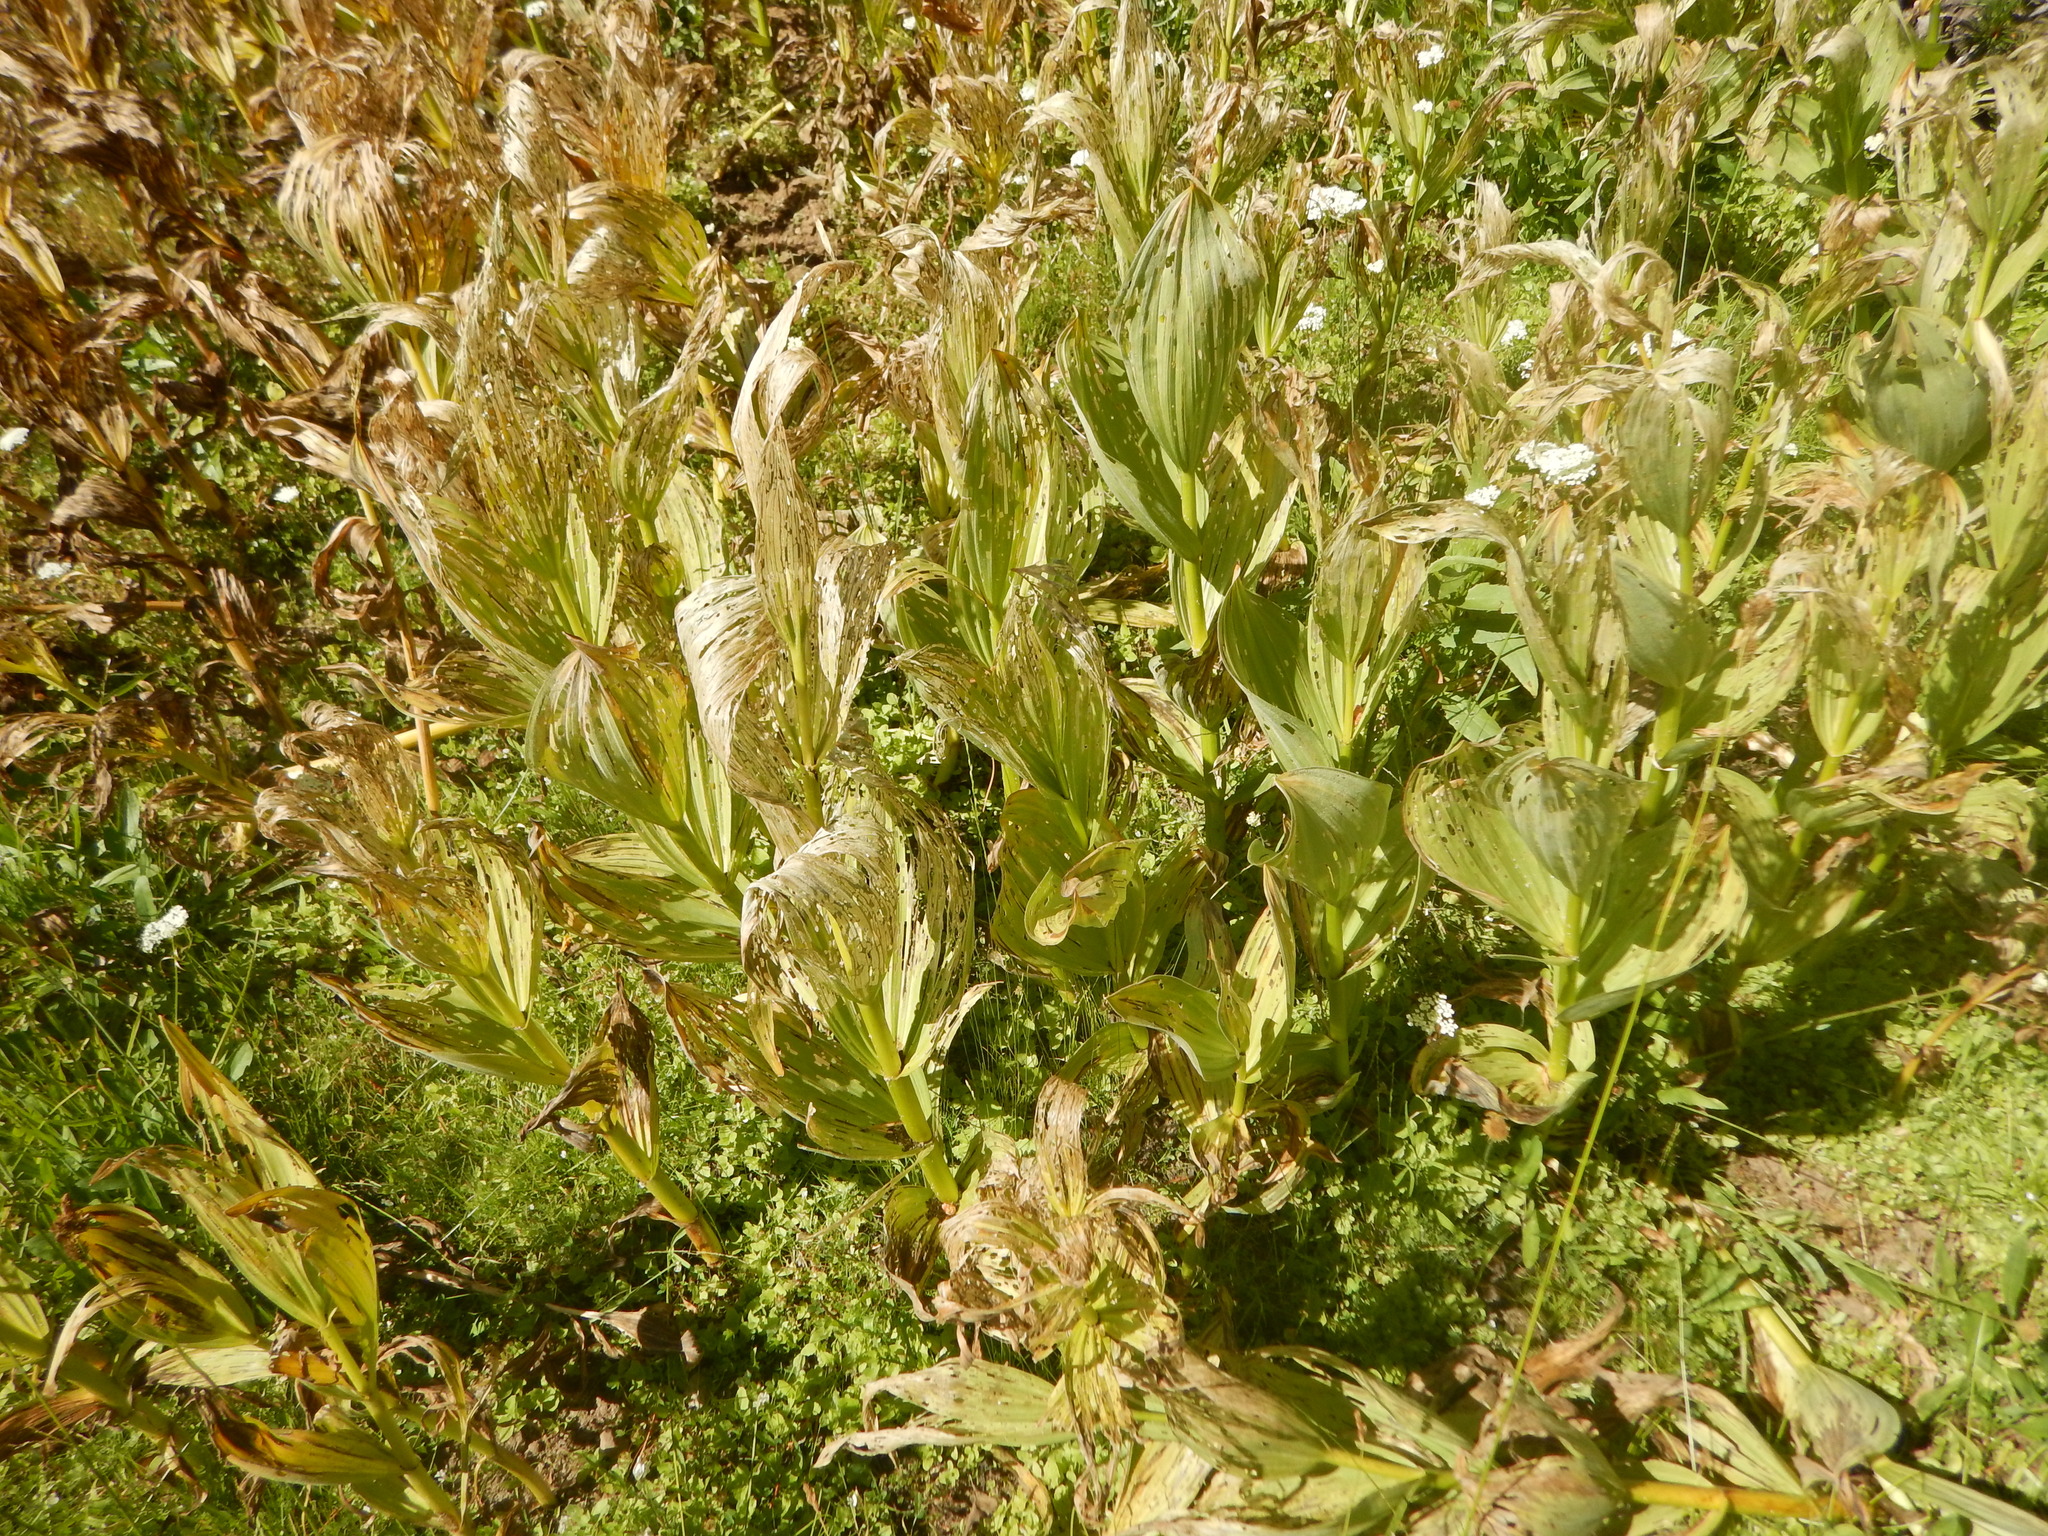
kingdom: Plantae
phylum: Tracheophyta
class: Liliopsida
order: Liliales
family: Melanthiaceae
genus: Veratrum
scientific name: Veratrum californicum
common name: California veratrum
